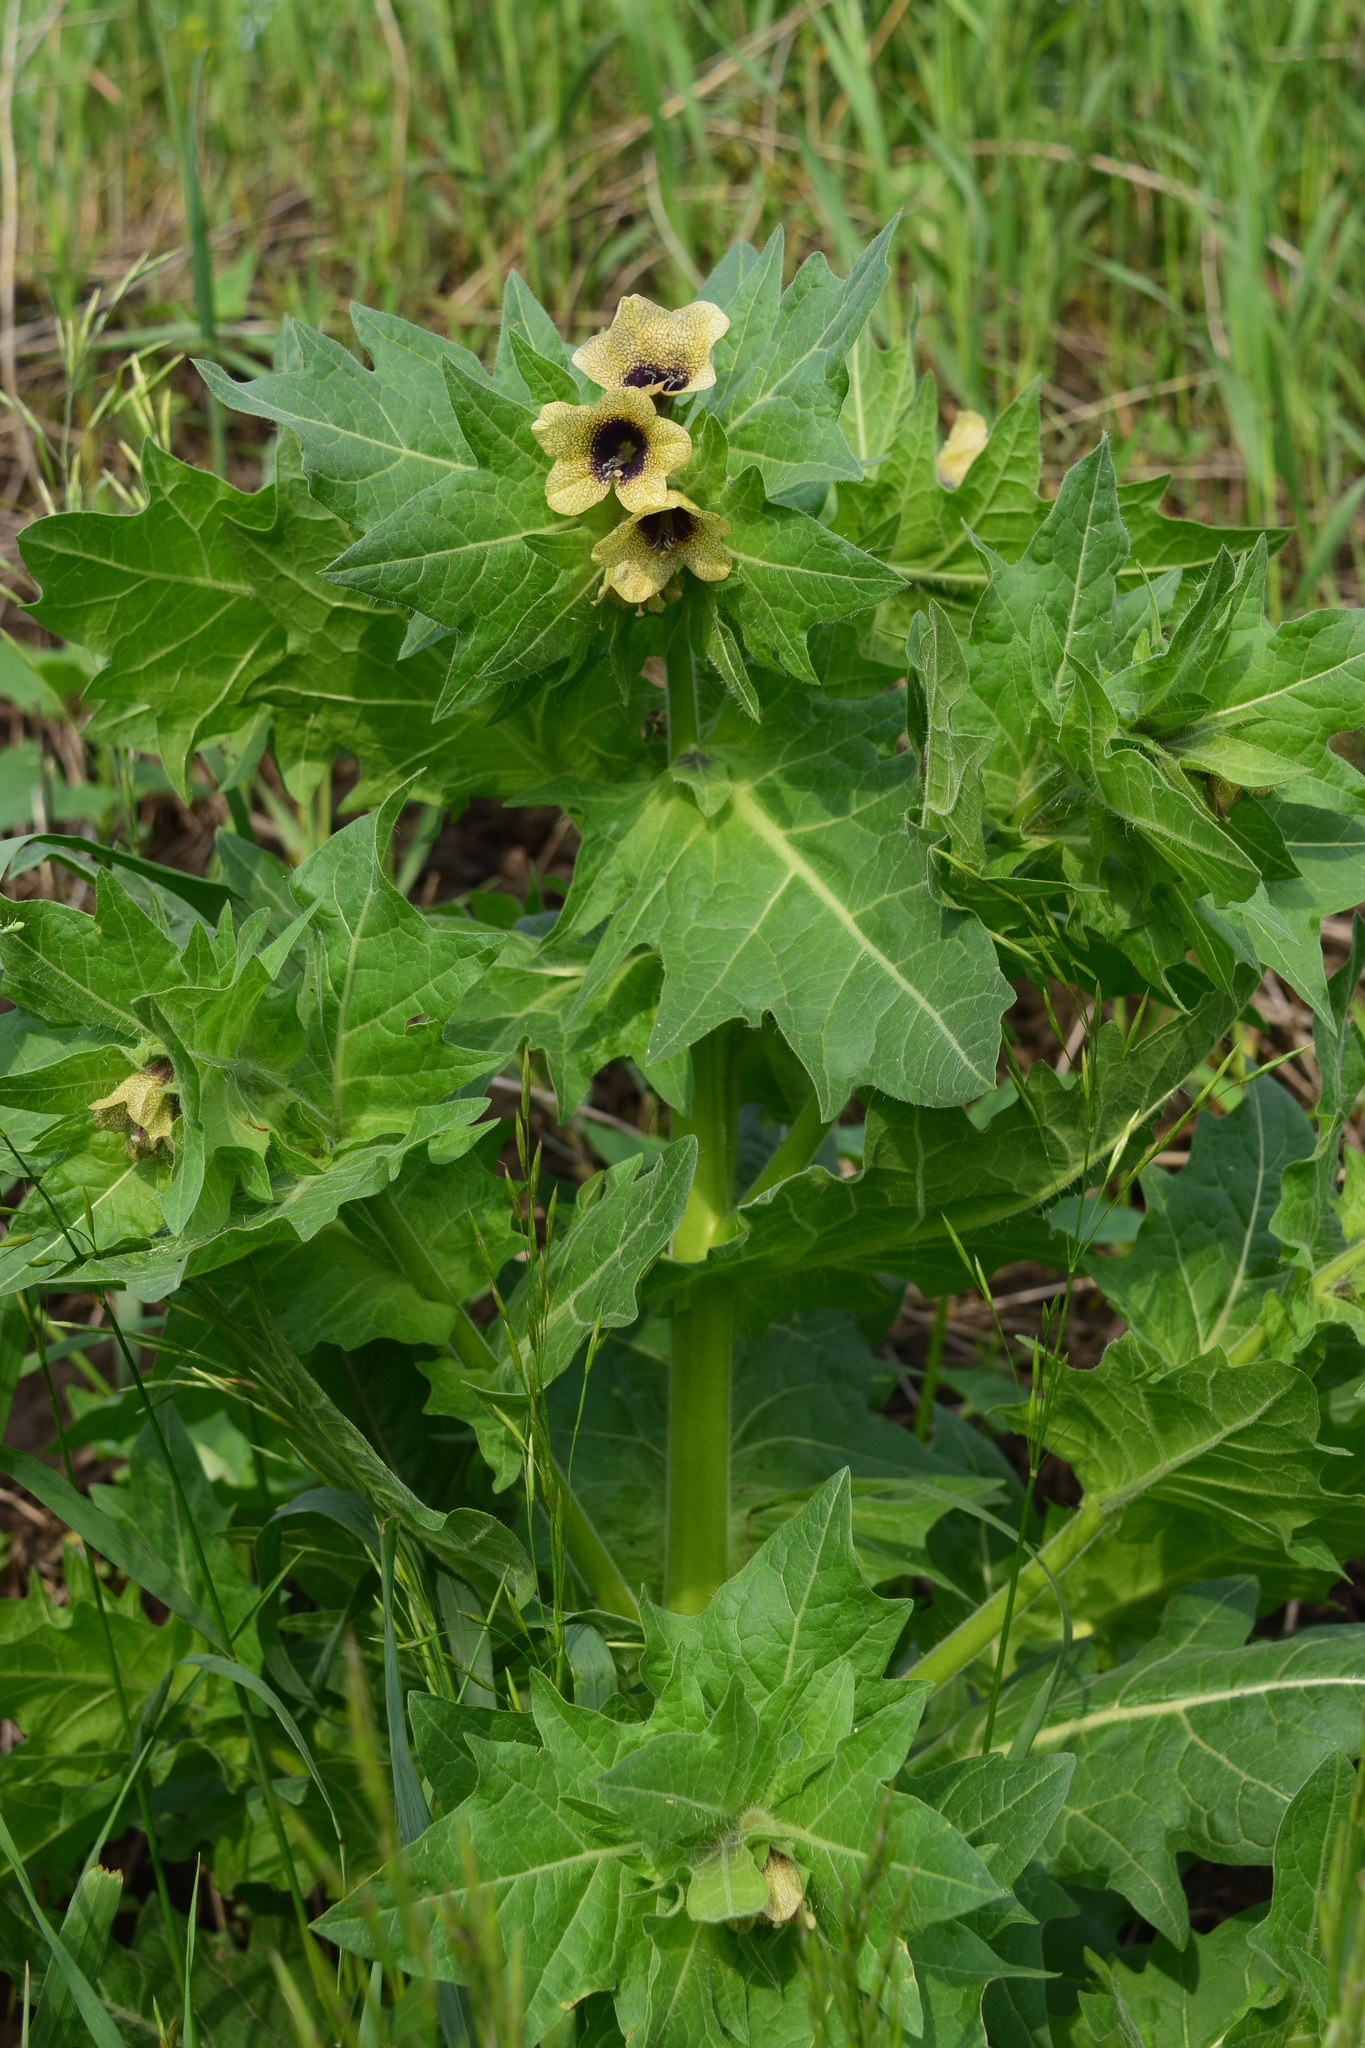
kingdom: Plantae
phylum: Tracheophyta
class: Magnoliopsida
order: Solanales
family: Solanaceae
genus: Hyoscyamus
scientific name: Hyoscyamus niger
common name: Henbane
